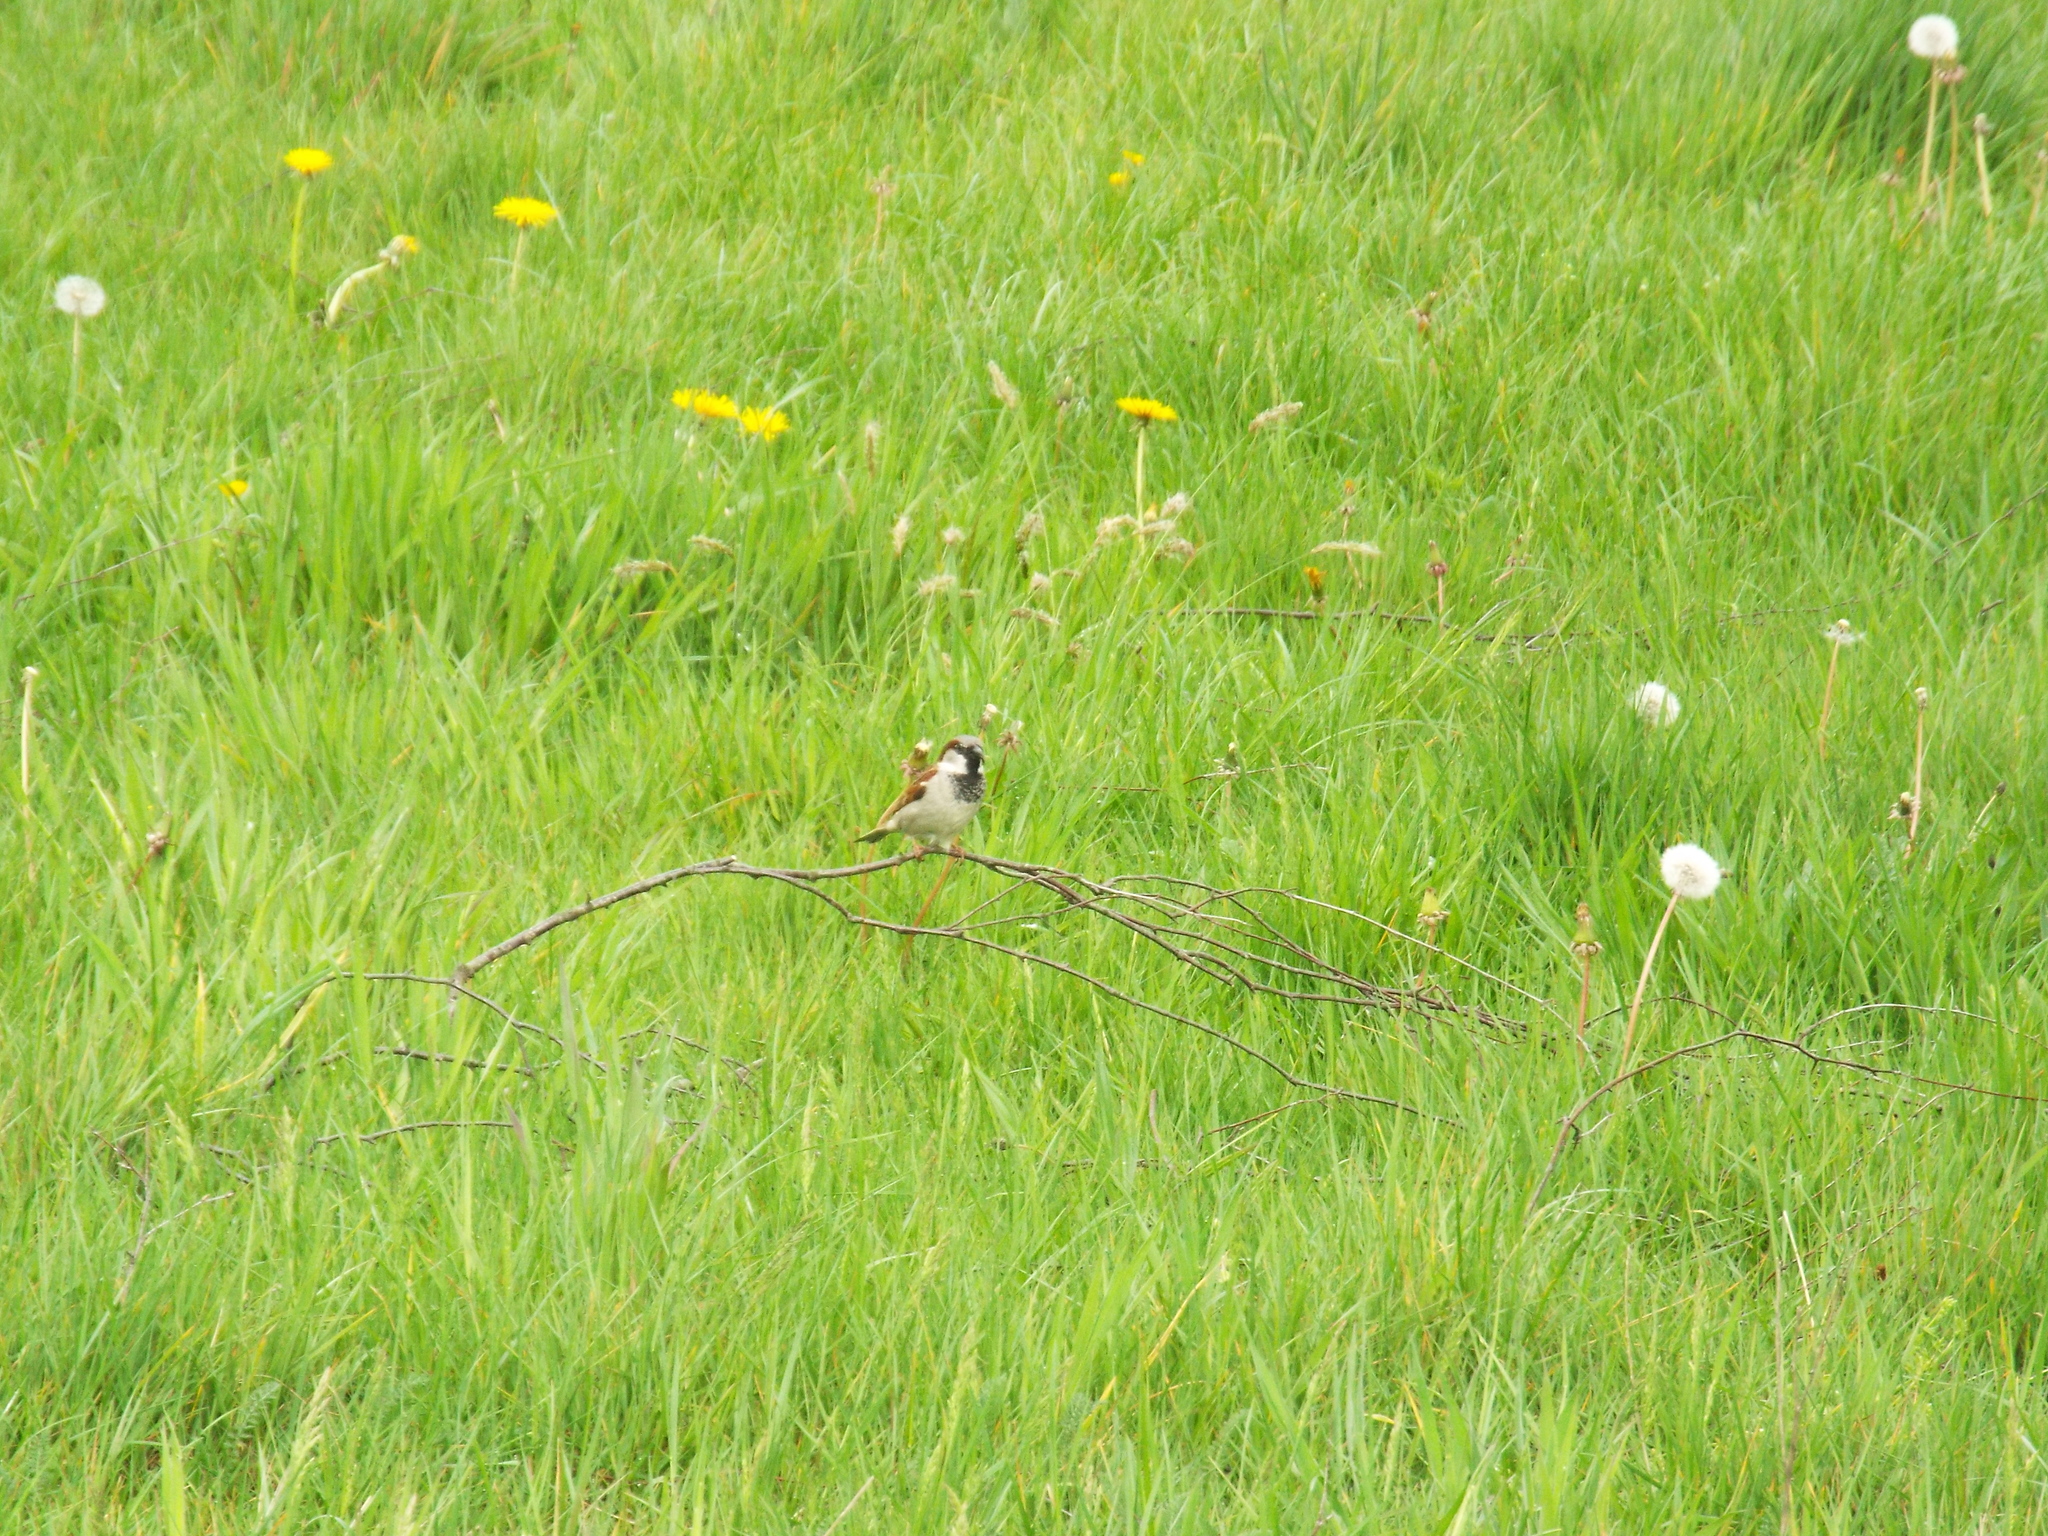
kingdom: Animalia
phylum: Chordata
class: Aves
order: Passeriformes
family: Passeridae
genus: Passer
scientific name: Passer domesticus
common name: House sparrow
